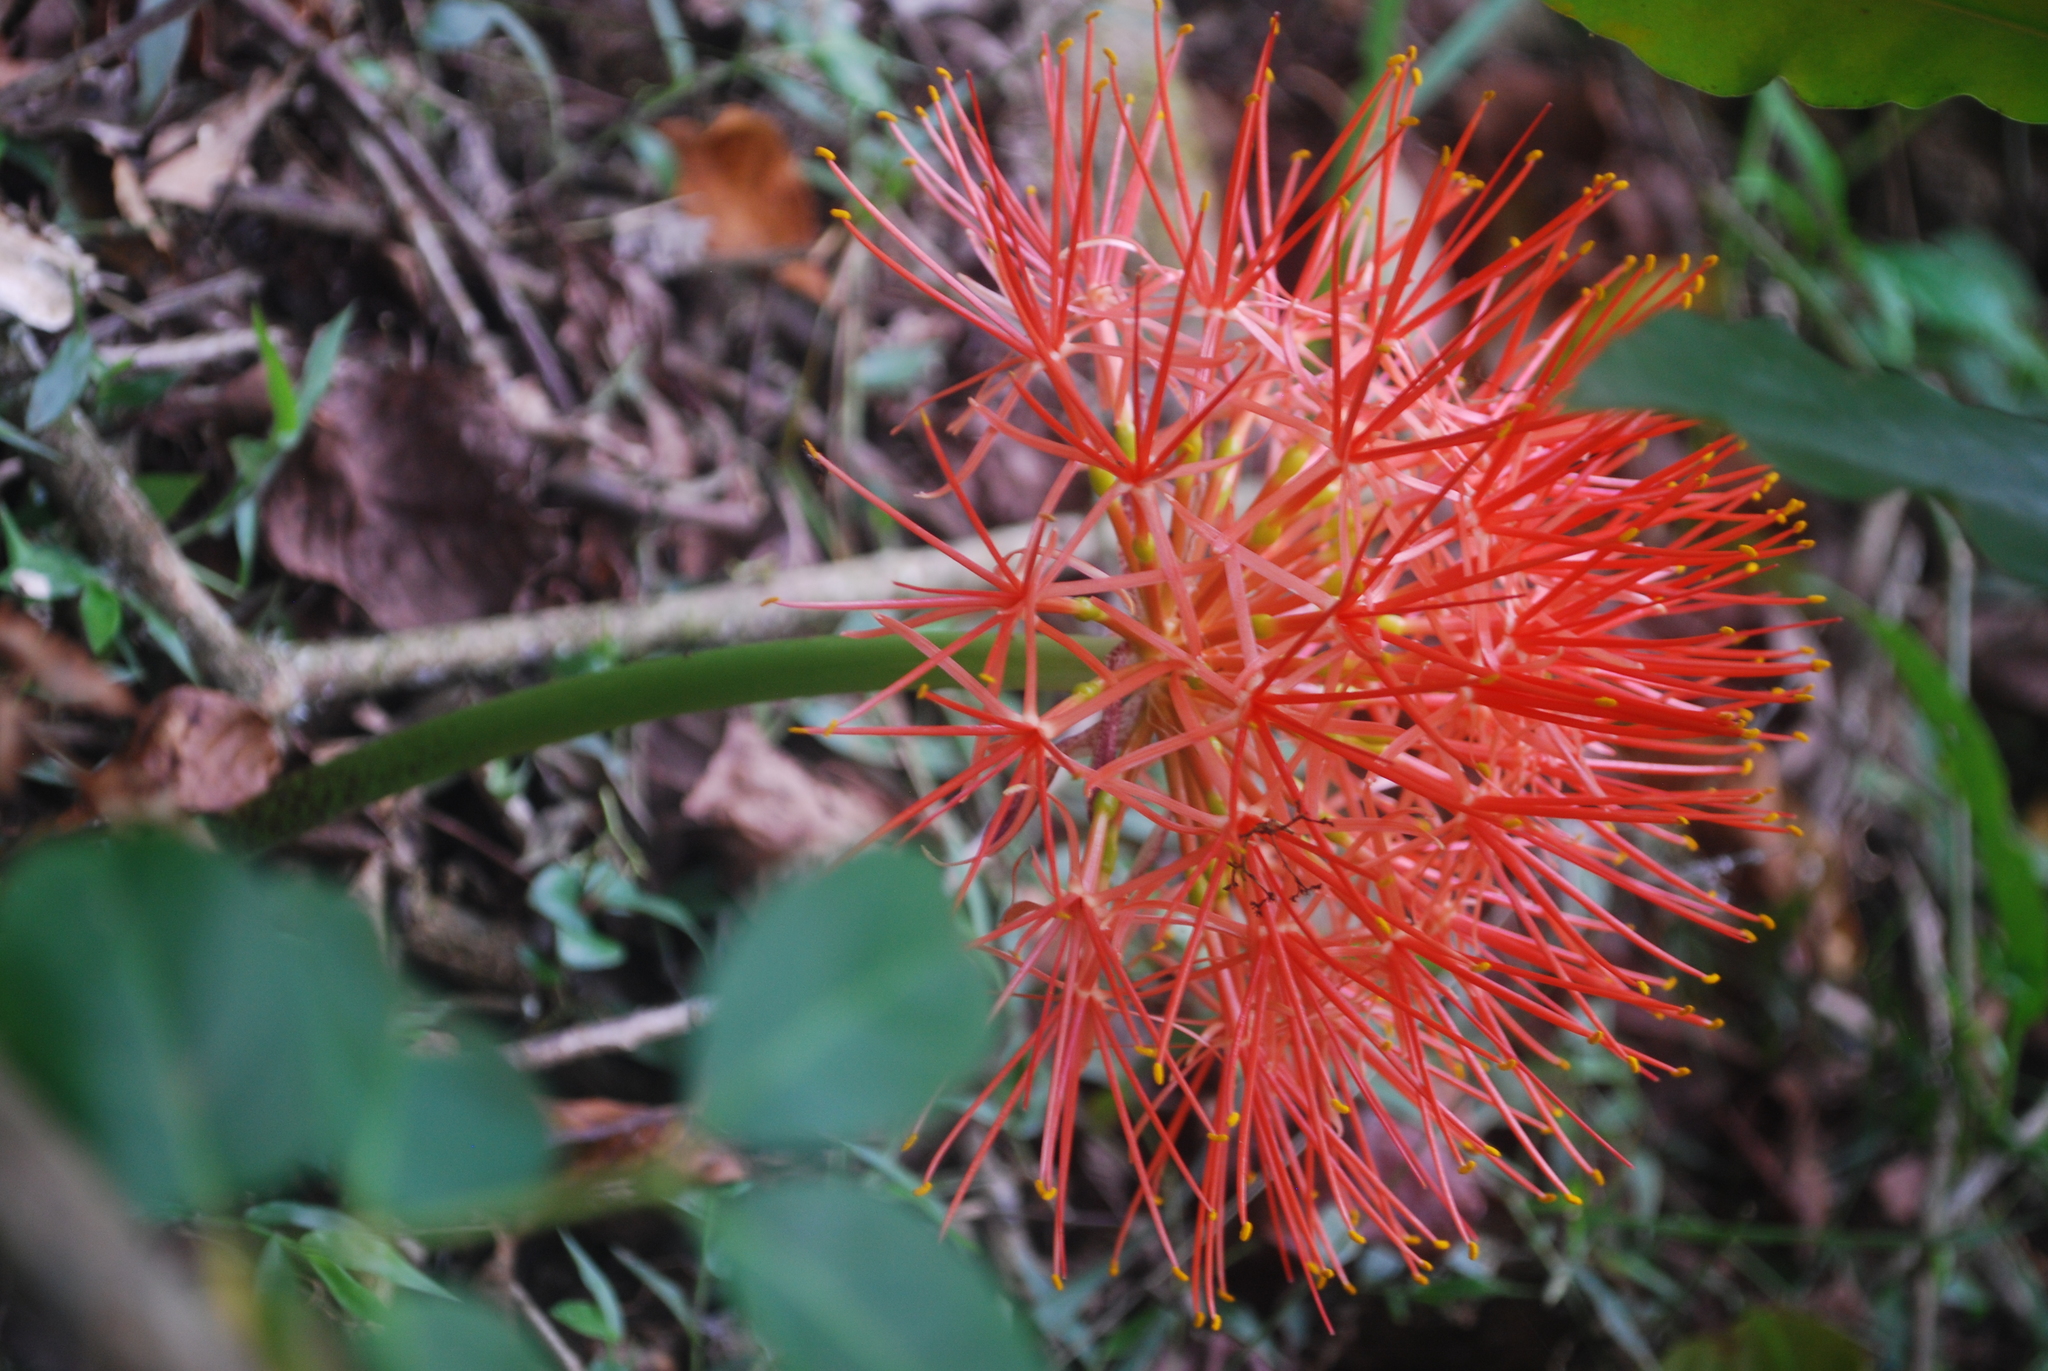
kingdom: Plantae
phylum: Tracheophyta
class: Liliopsida
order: Asparagales
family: Amaryllidaceae
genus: Scadoxus
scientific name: Scadoxus multiflorus
